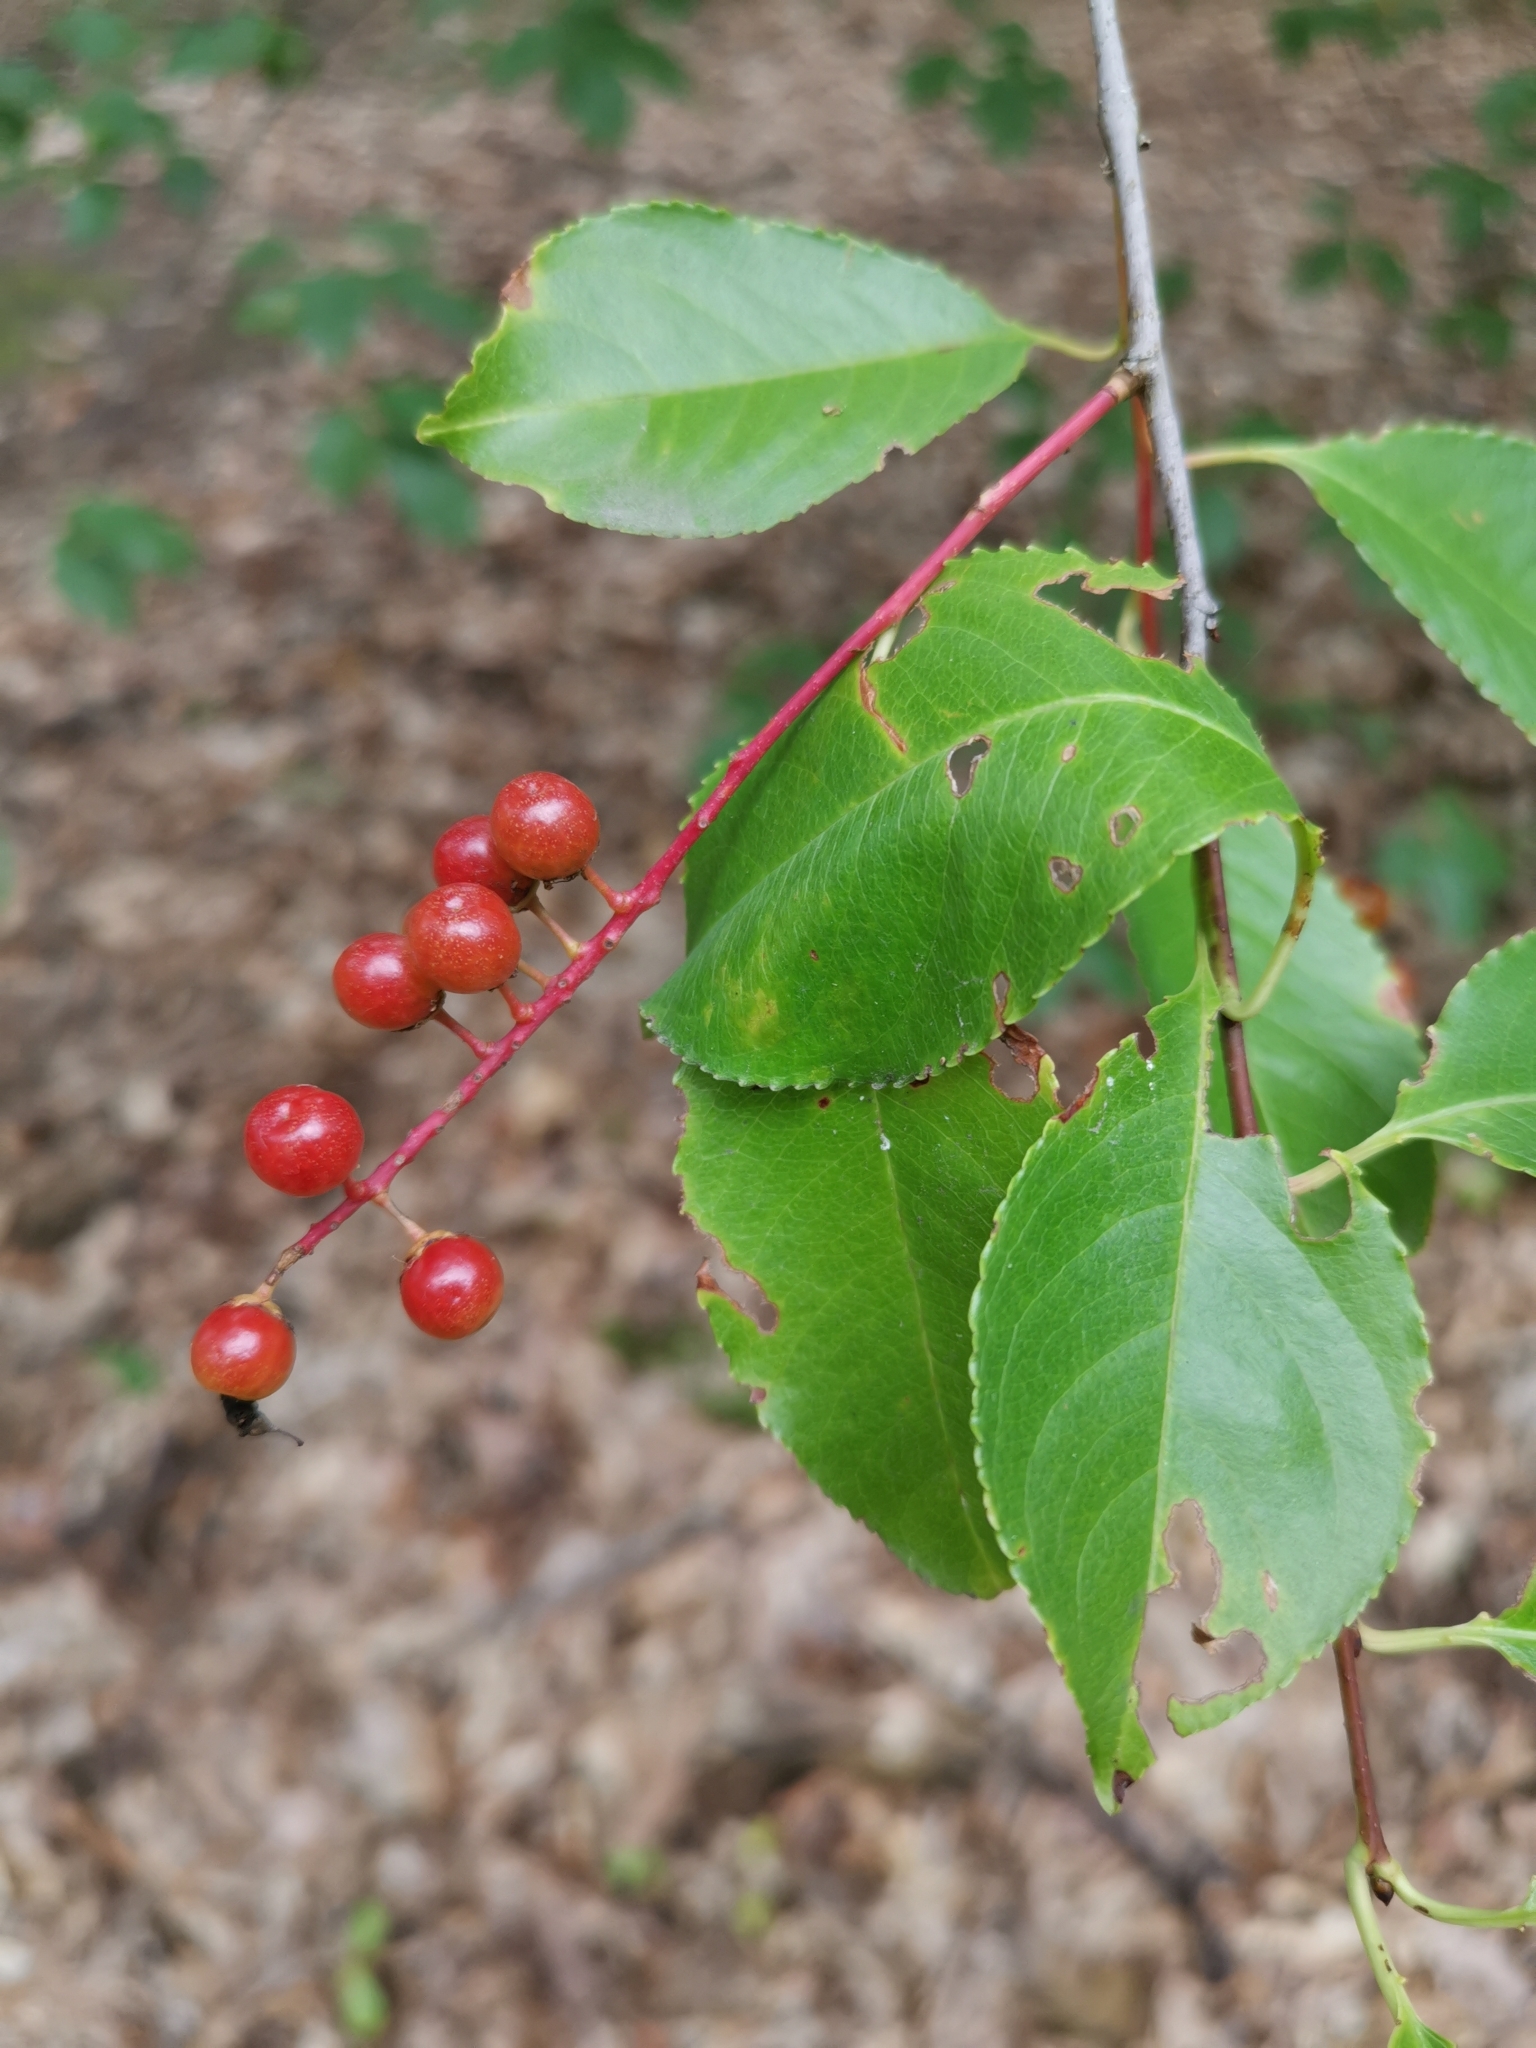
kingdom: Plantae
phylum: Tracheophyta
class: Magnoliopsida
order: Rosales
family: Rosaceae
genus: Prunus
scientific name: Prunus serotina
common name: Black cherry
